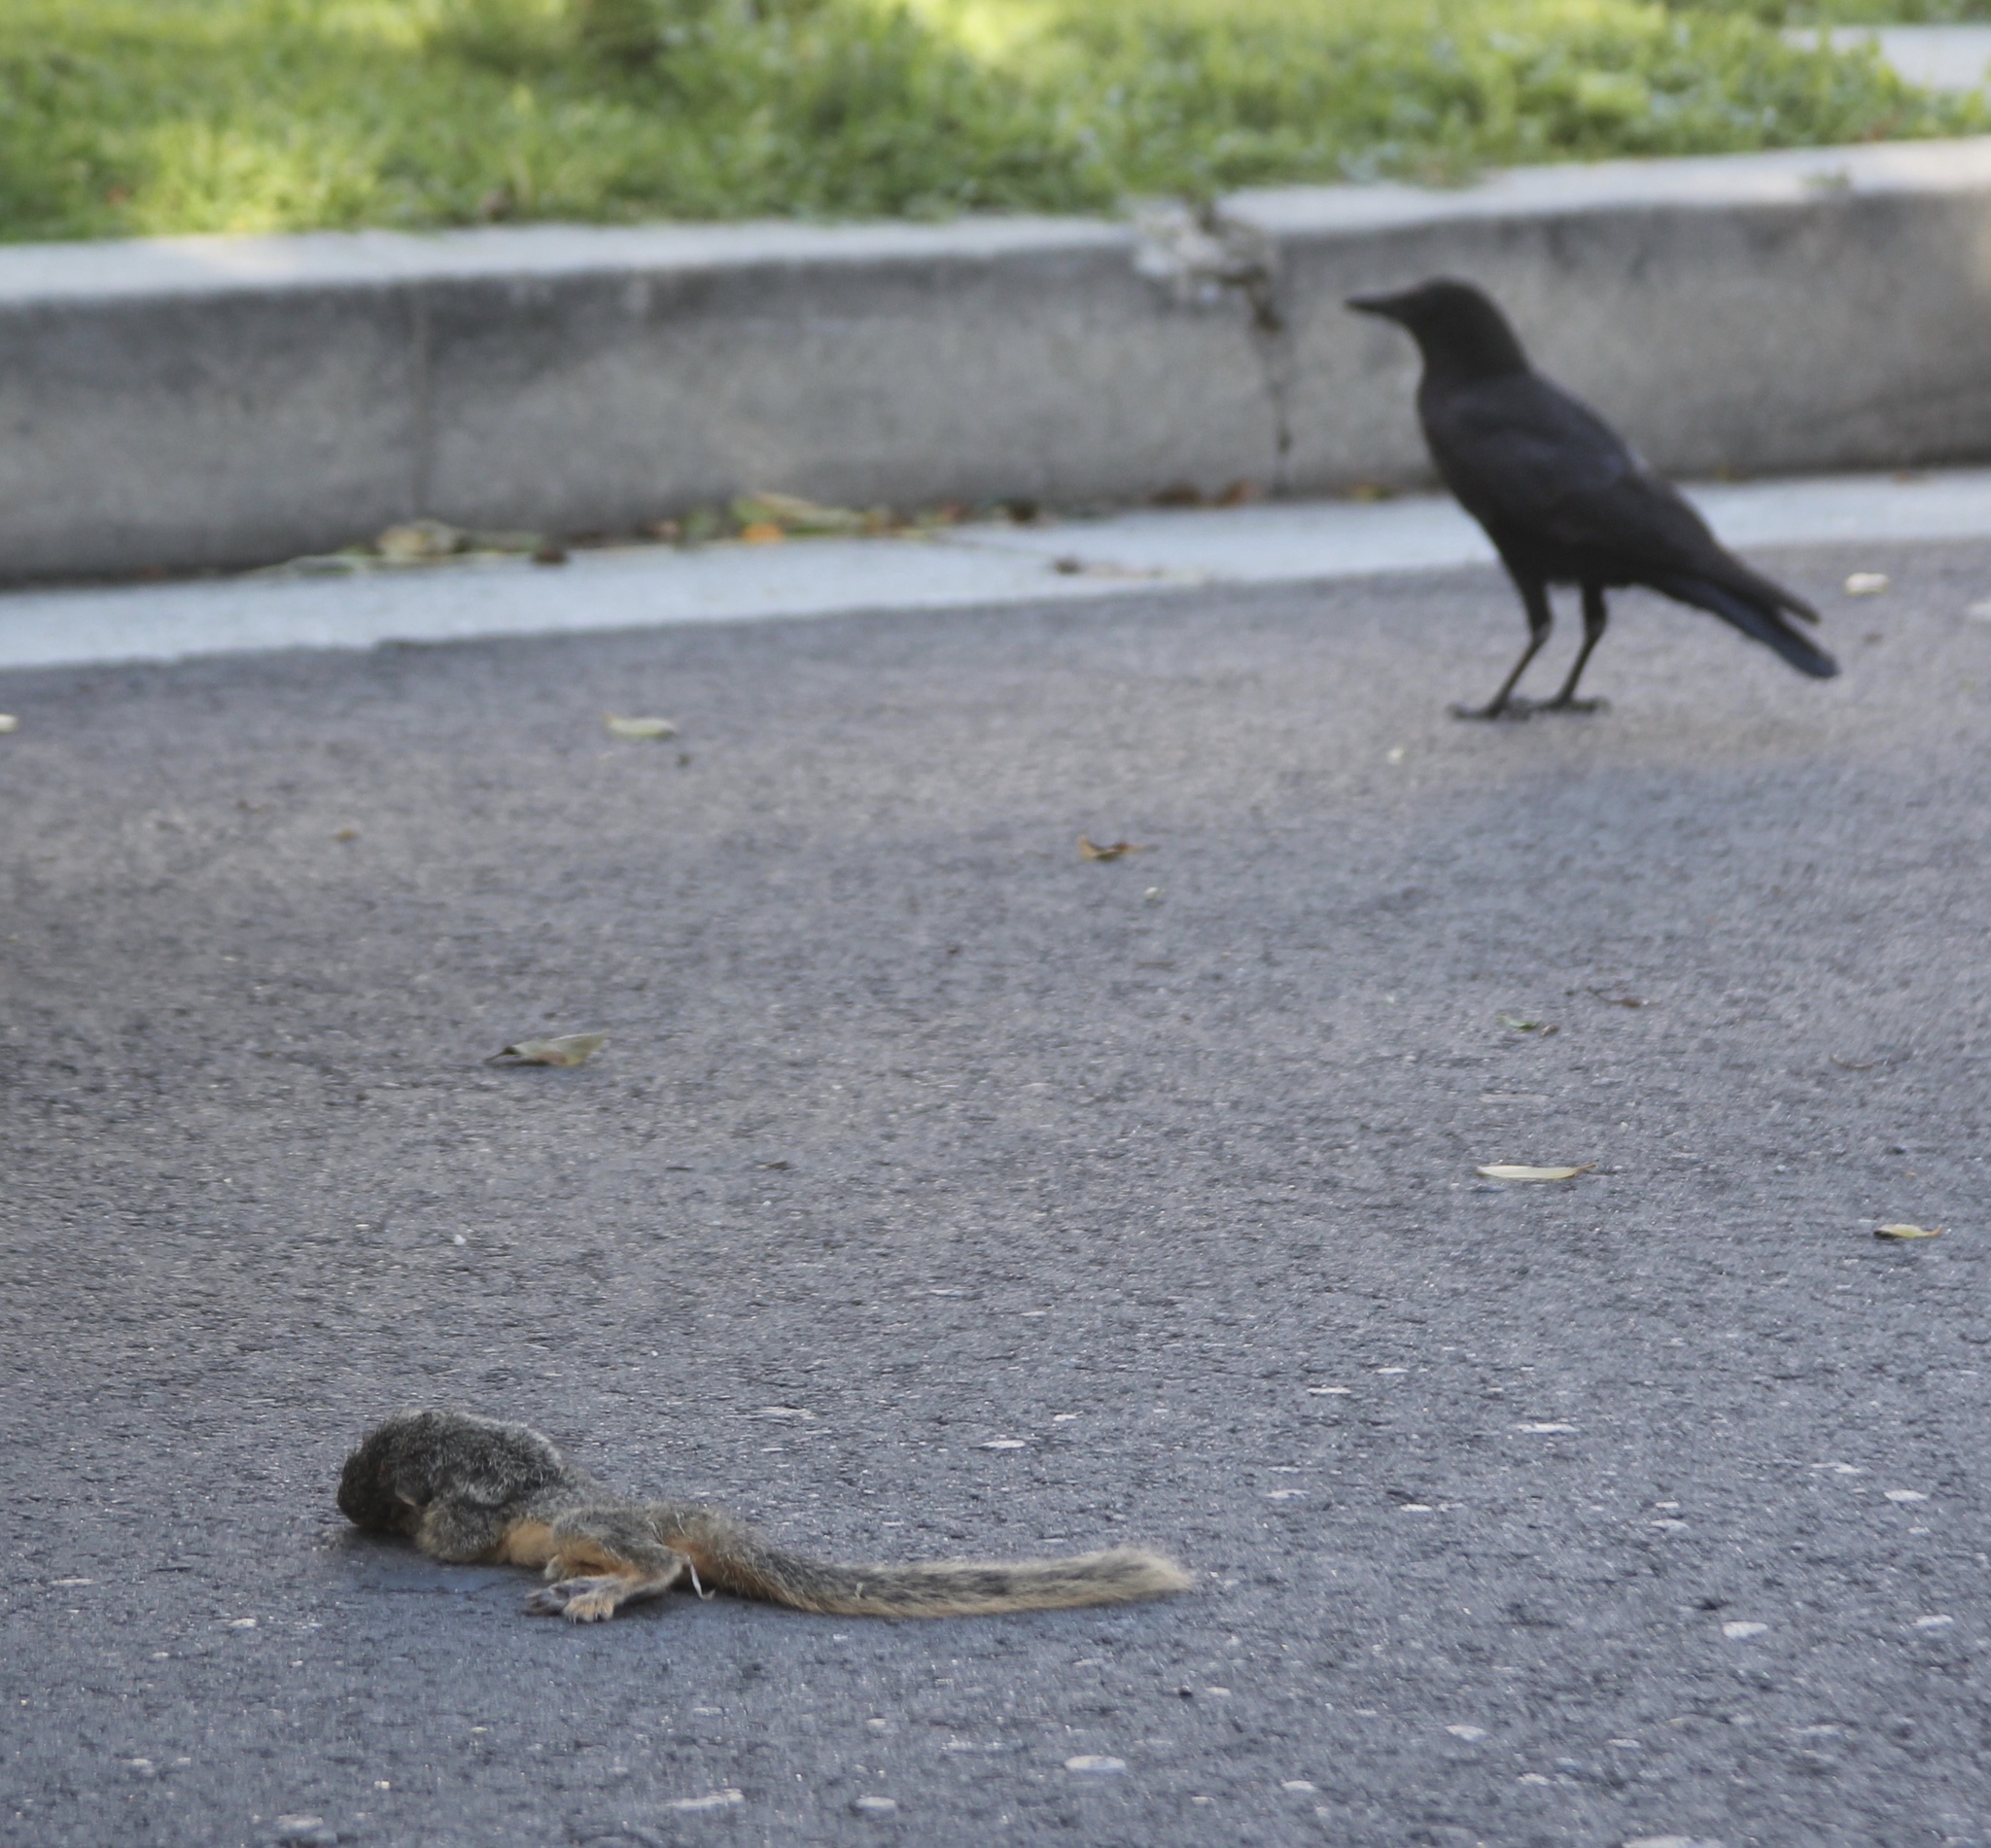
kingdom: Animalia
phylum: Chordata
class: Mammalia
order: Rodentia
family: Sciuridae
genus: Sciurus
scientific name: Sciurus niger
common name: Fox squirrel
